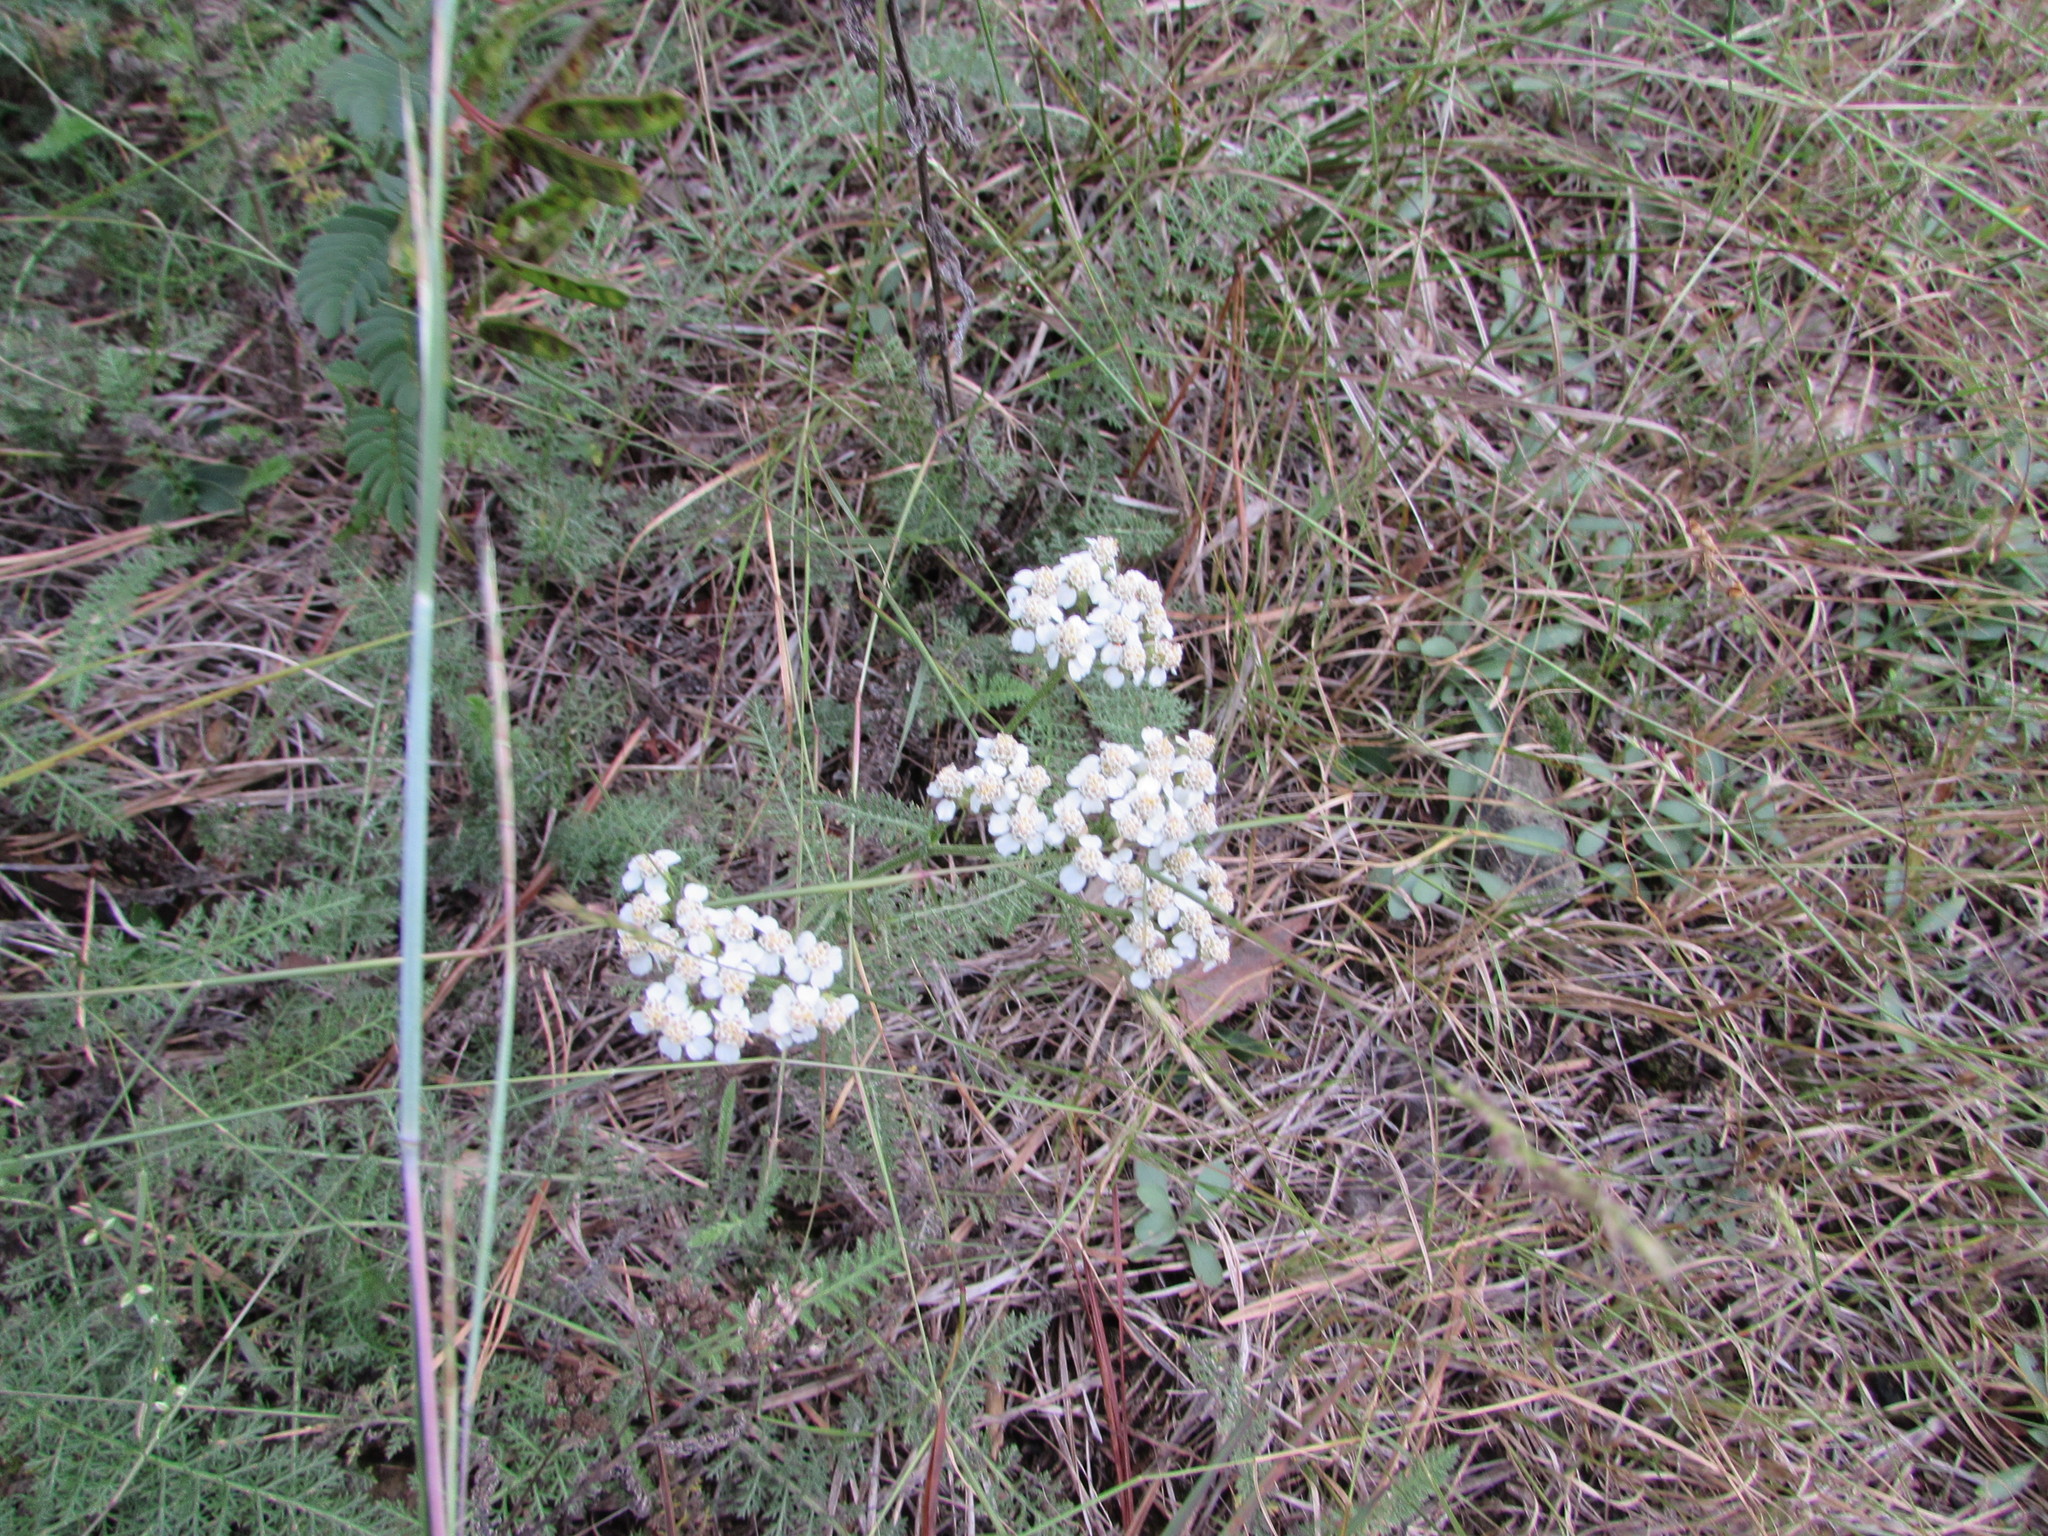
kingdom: Plantae
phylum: Tracheophyta
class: Magnoliopsida
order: Asterales
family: Asteraceae
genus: Achillea
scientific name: Achillea millefolium
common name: Yarrow
